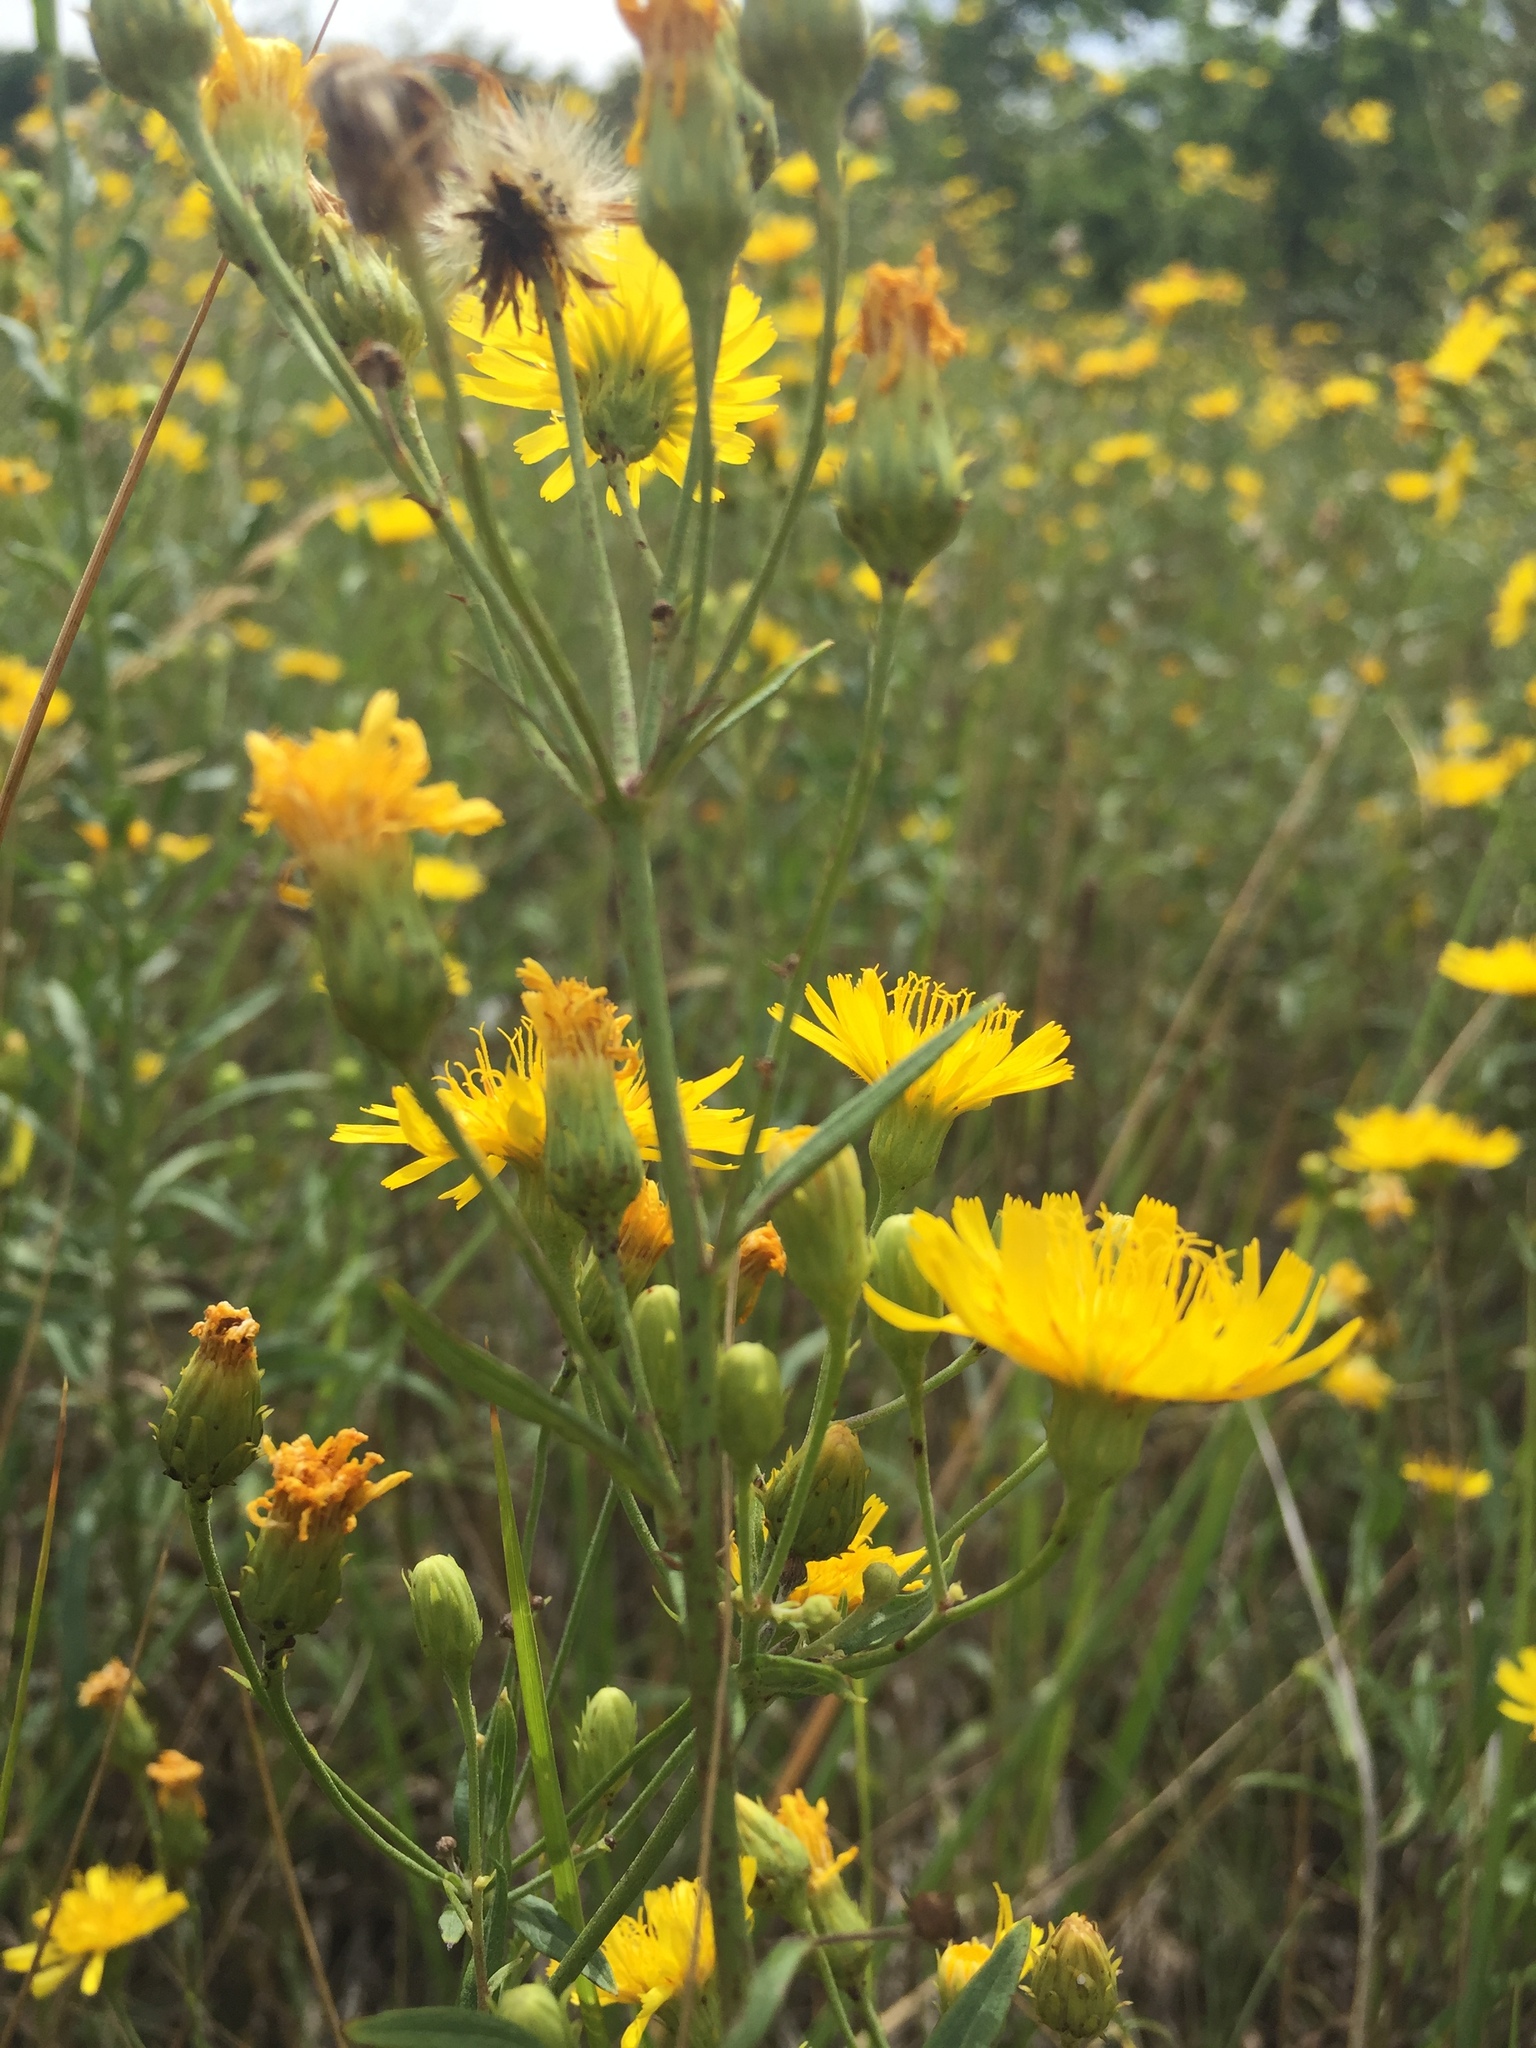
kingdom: Plantae
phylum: Tracheophyta
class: Magnoliopsida
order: Asterales
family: Asteraceae
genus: Hieracium
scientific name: Hieracium umbellatum
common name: Northern hawkweed
